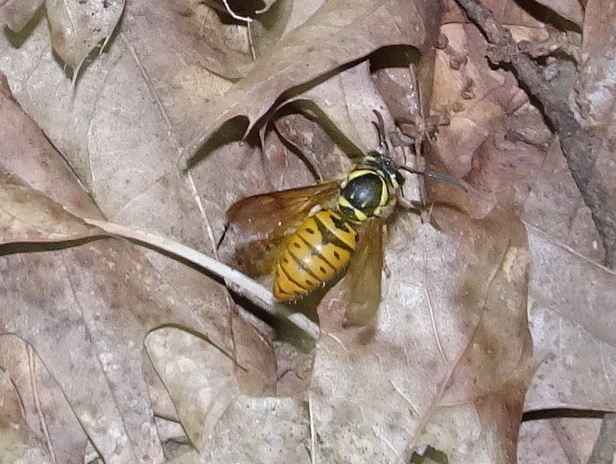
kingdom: Animalia
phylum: Arthropoda
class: Insecta
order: Hymenoptera
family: Vespidae
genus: Vespula
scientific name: Vespula maculifrons
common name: Eastern yellowjacket
